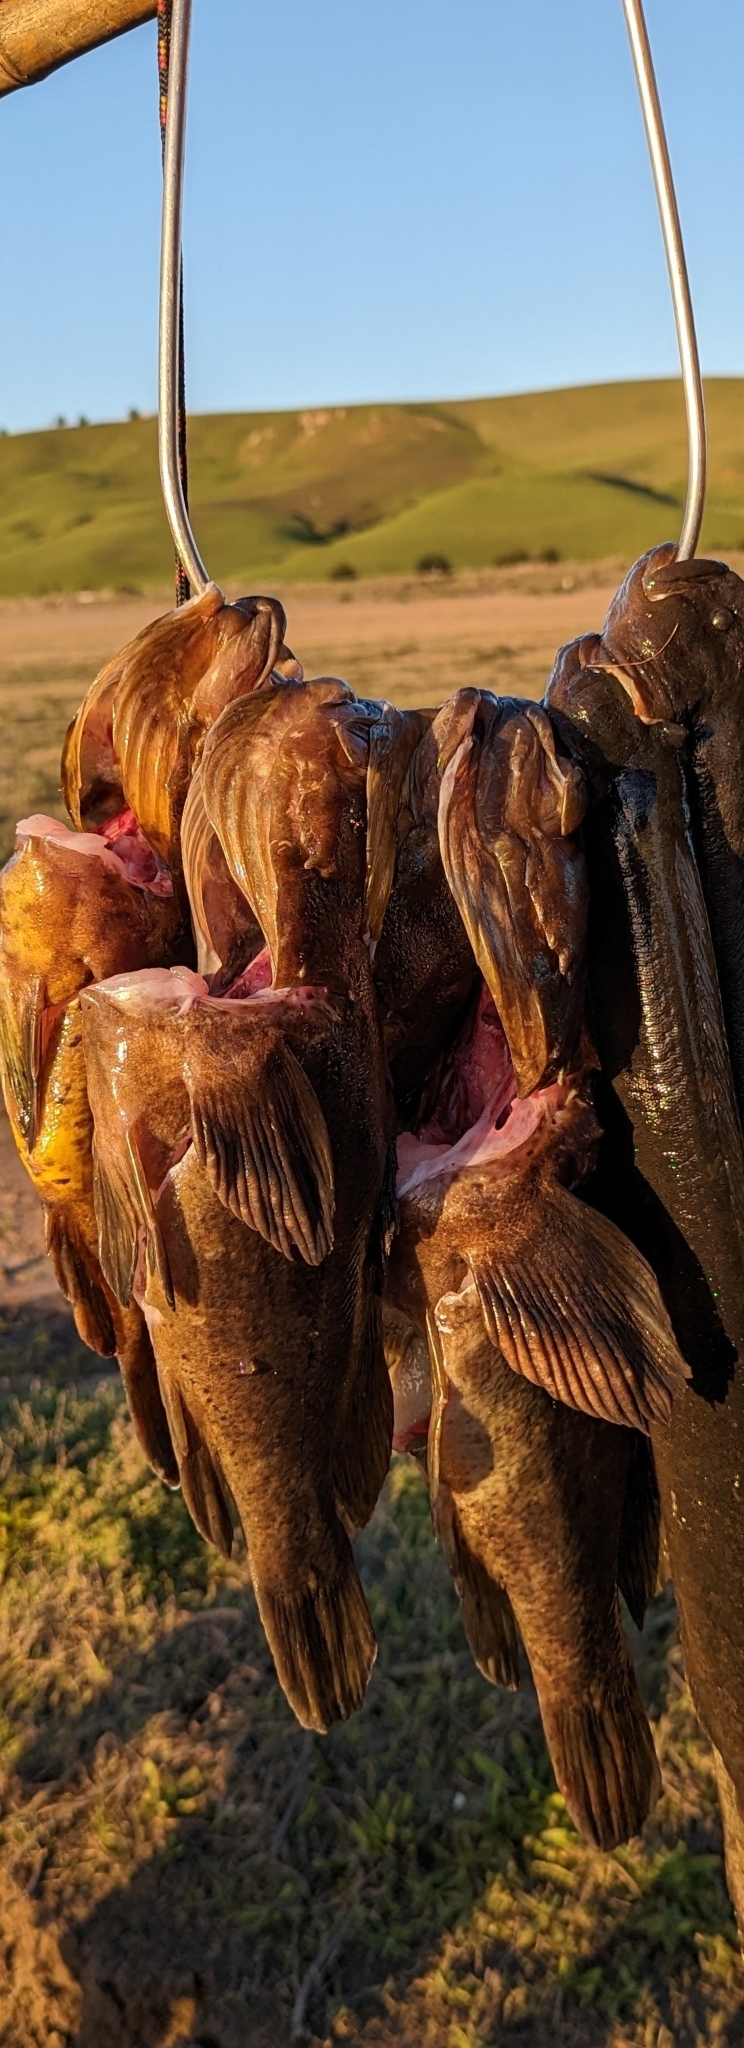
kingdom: Animalia
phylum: Chordata
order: Scorpaeniformes
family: Sebastidae
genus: Sebastes
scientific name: Sebastes chrysomelas
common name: Black-and-yellow rockfish
